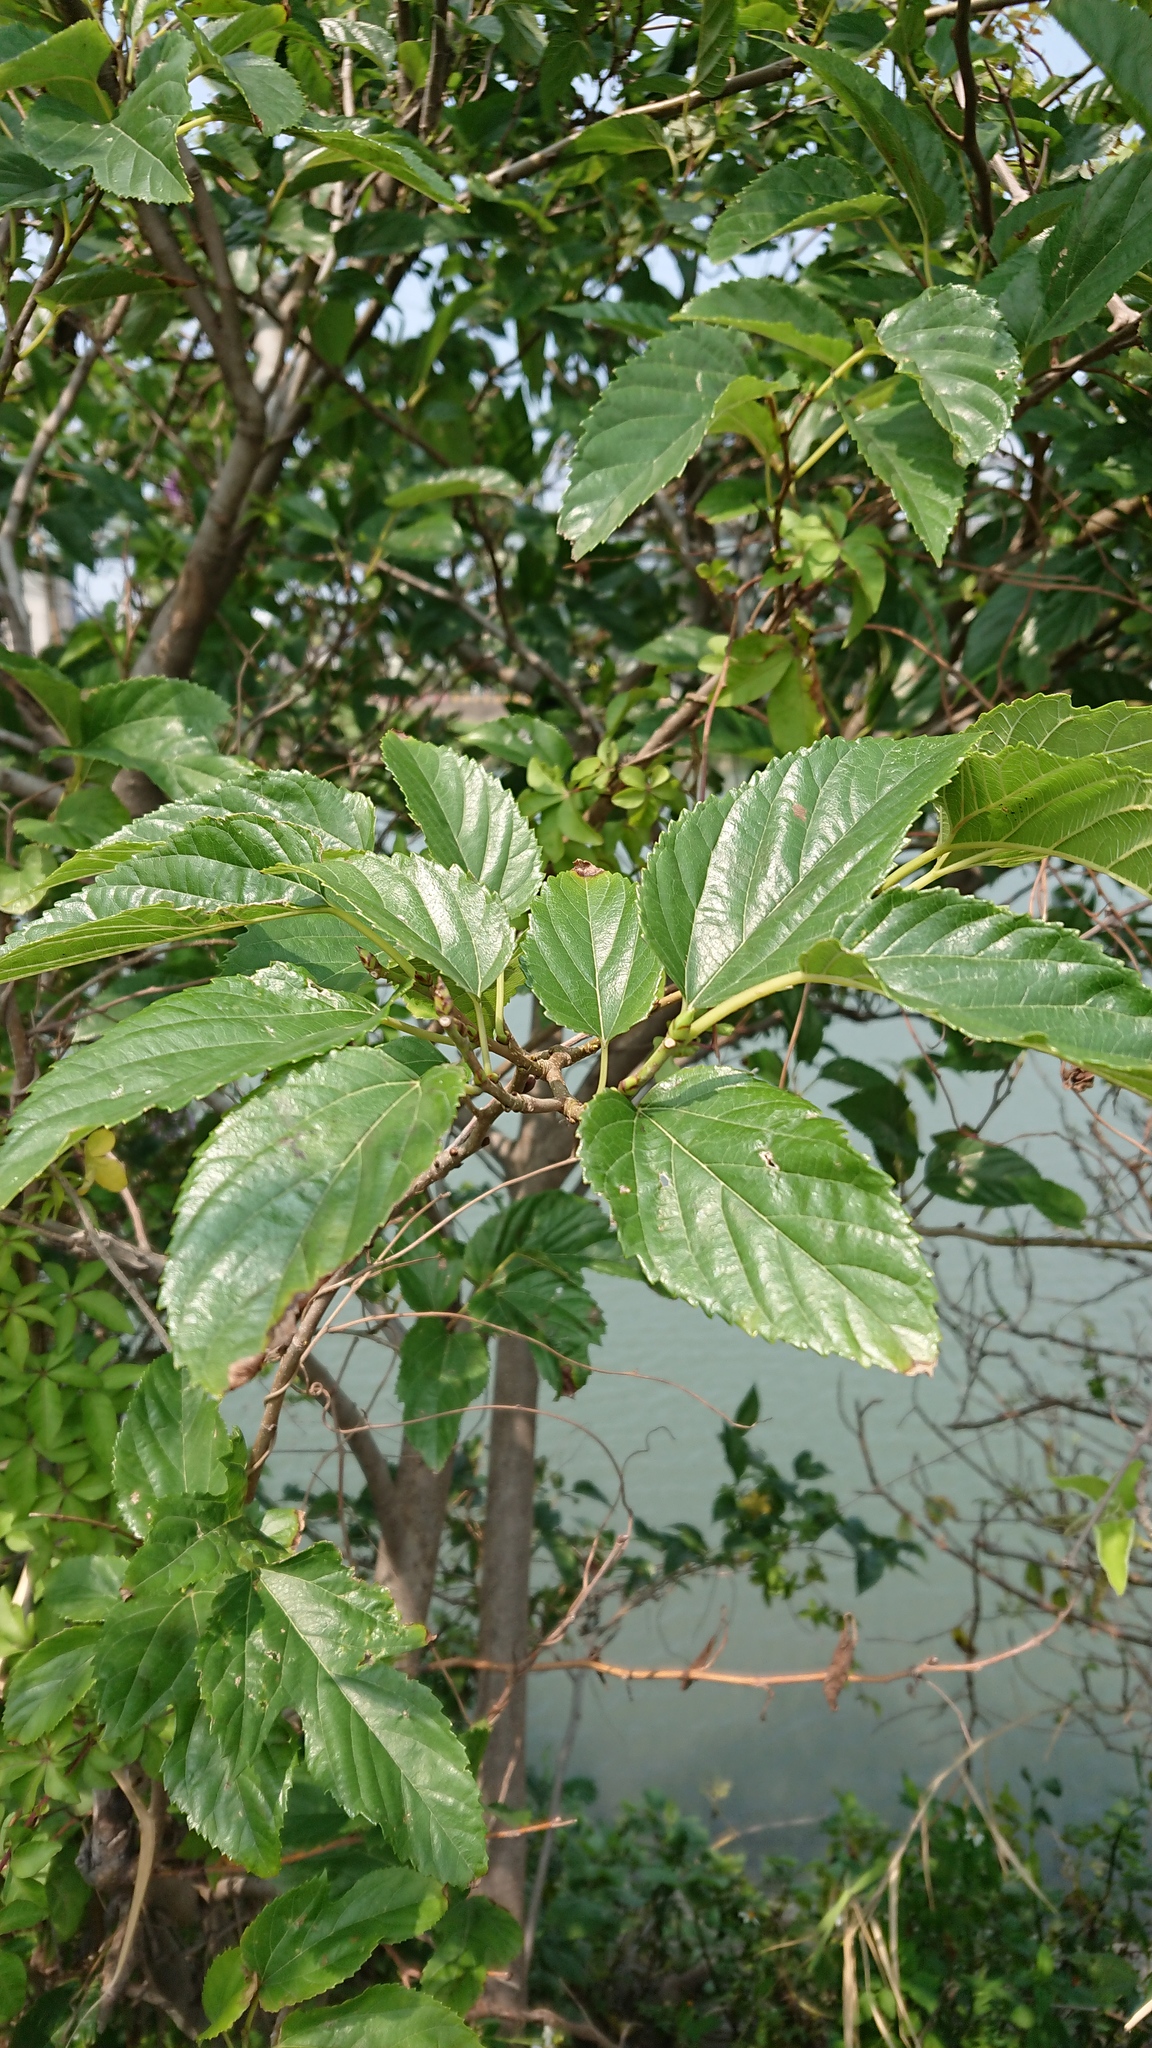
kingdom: Plantae
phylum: Tracheophyta
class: Magnoliopsida
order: Rosales
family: Moraceae
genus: Morus
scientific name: Morus indica
